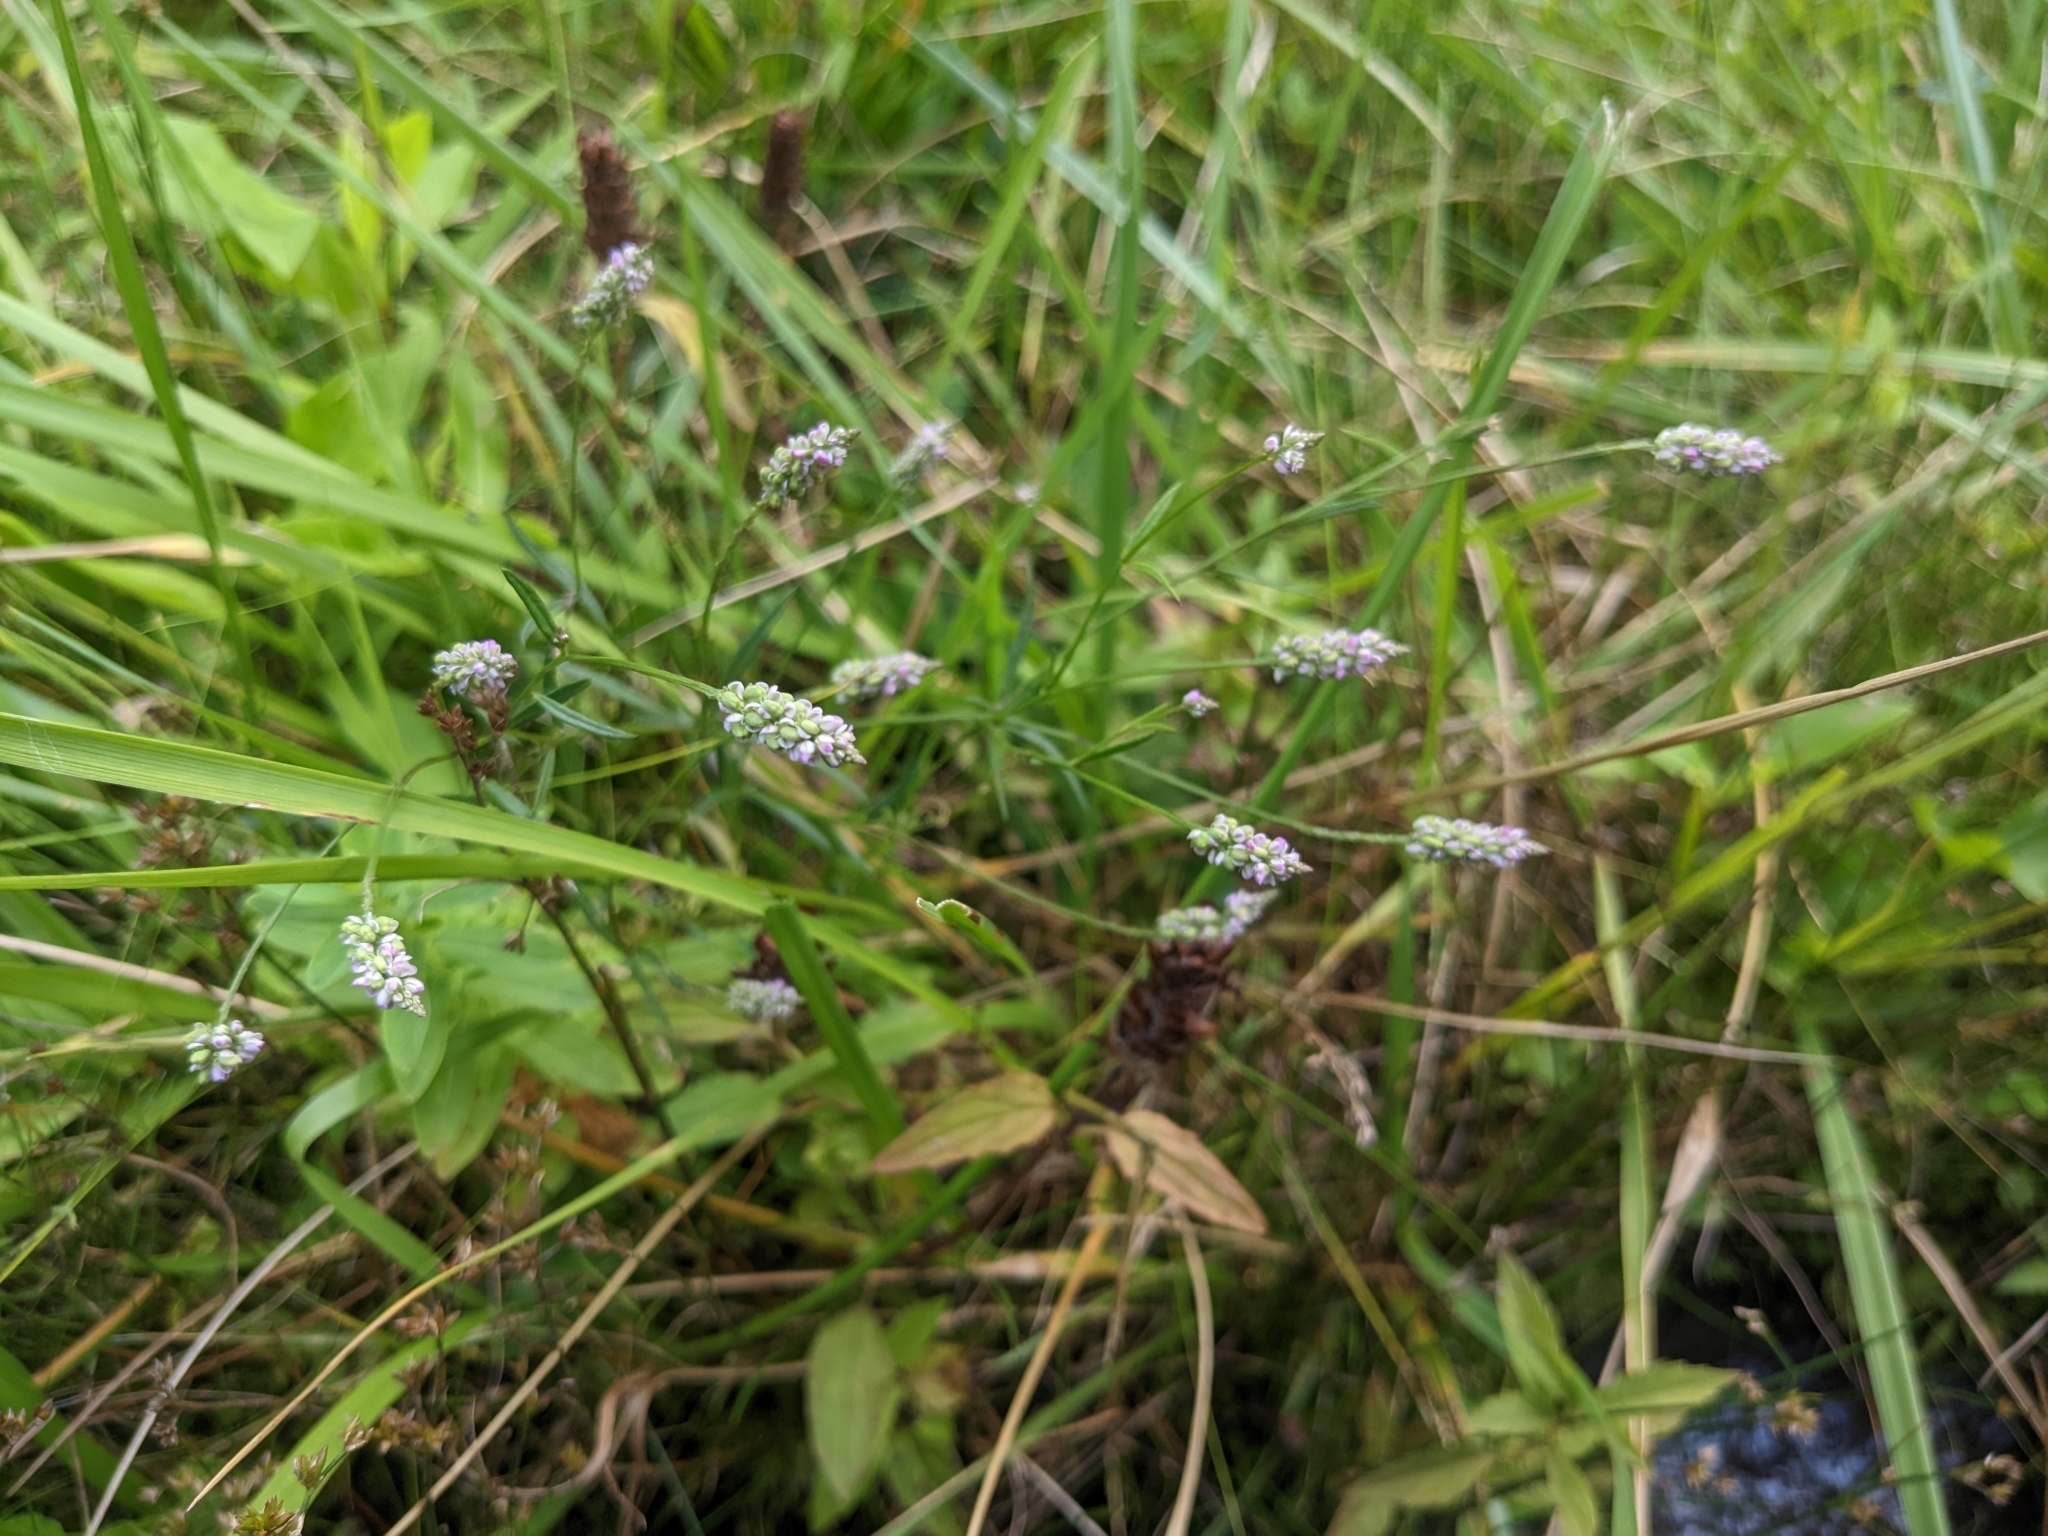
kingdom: Plantae
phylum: Tracheophyta
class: Magnoliopsida
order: Caryophyllales
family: Polygonaceae
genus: Persicaria
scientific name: Persicaria pensylvanica
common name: Pinkweed
